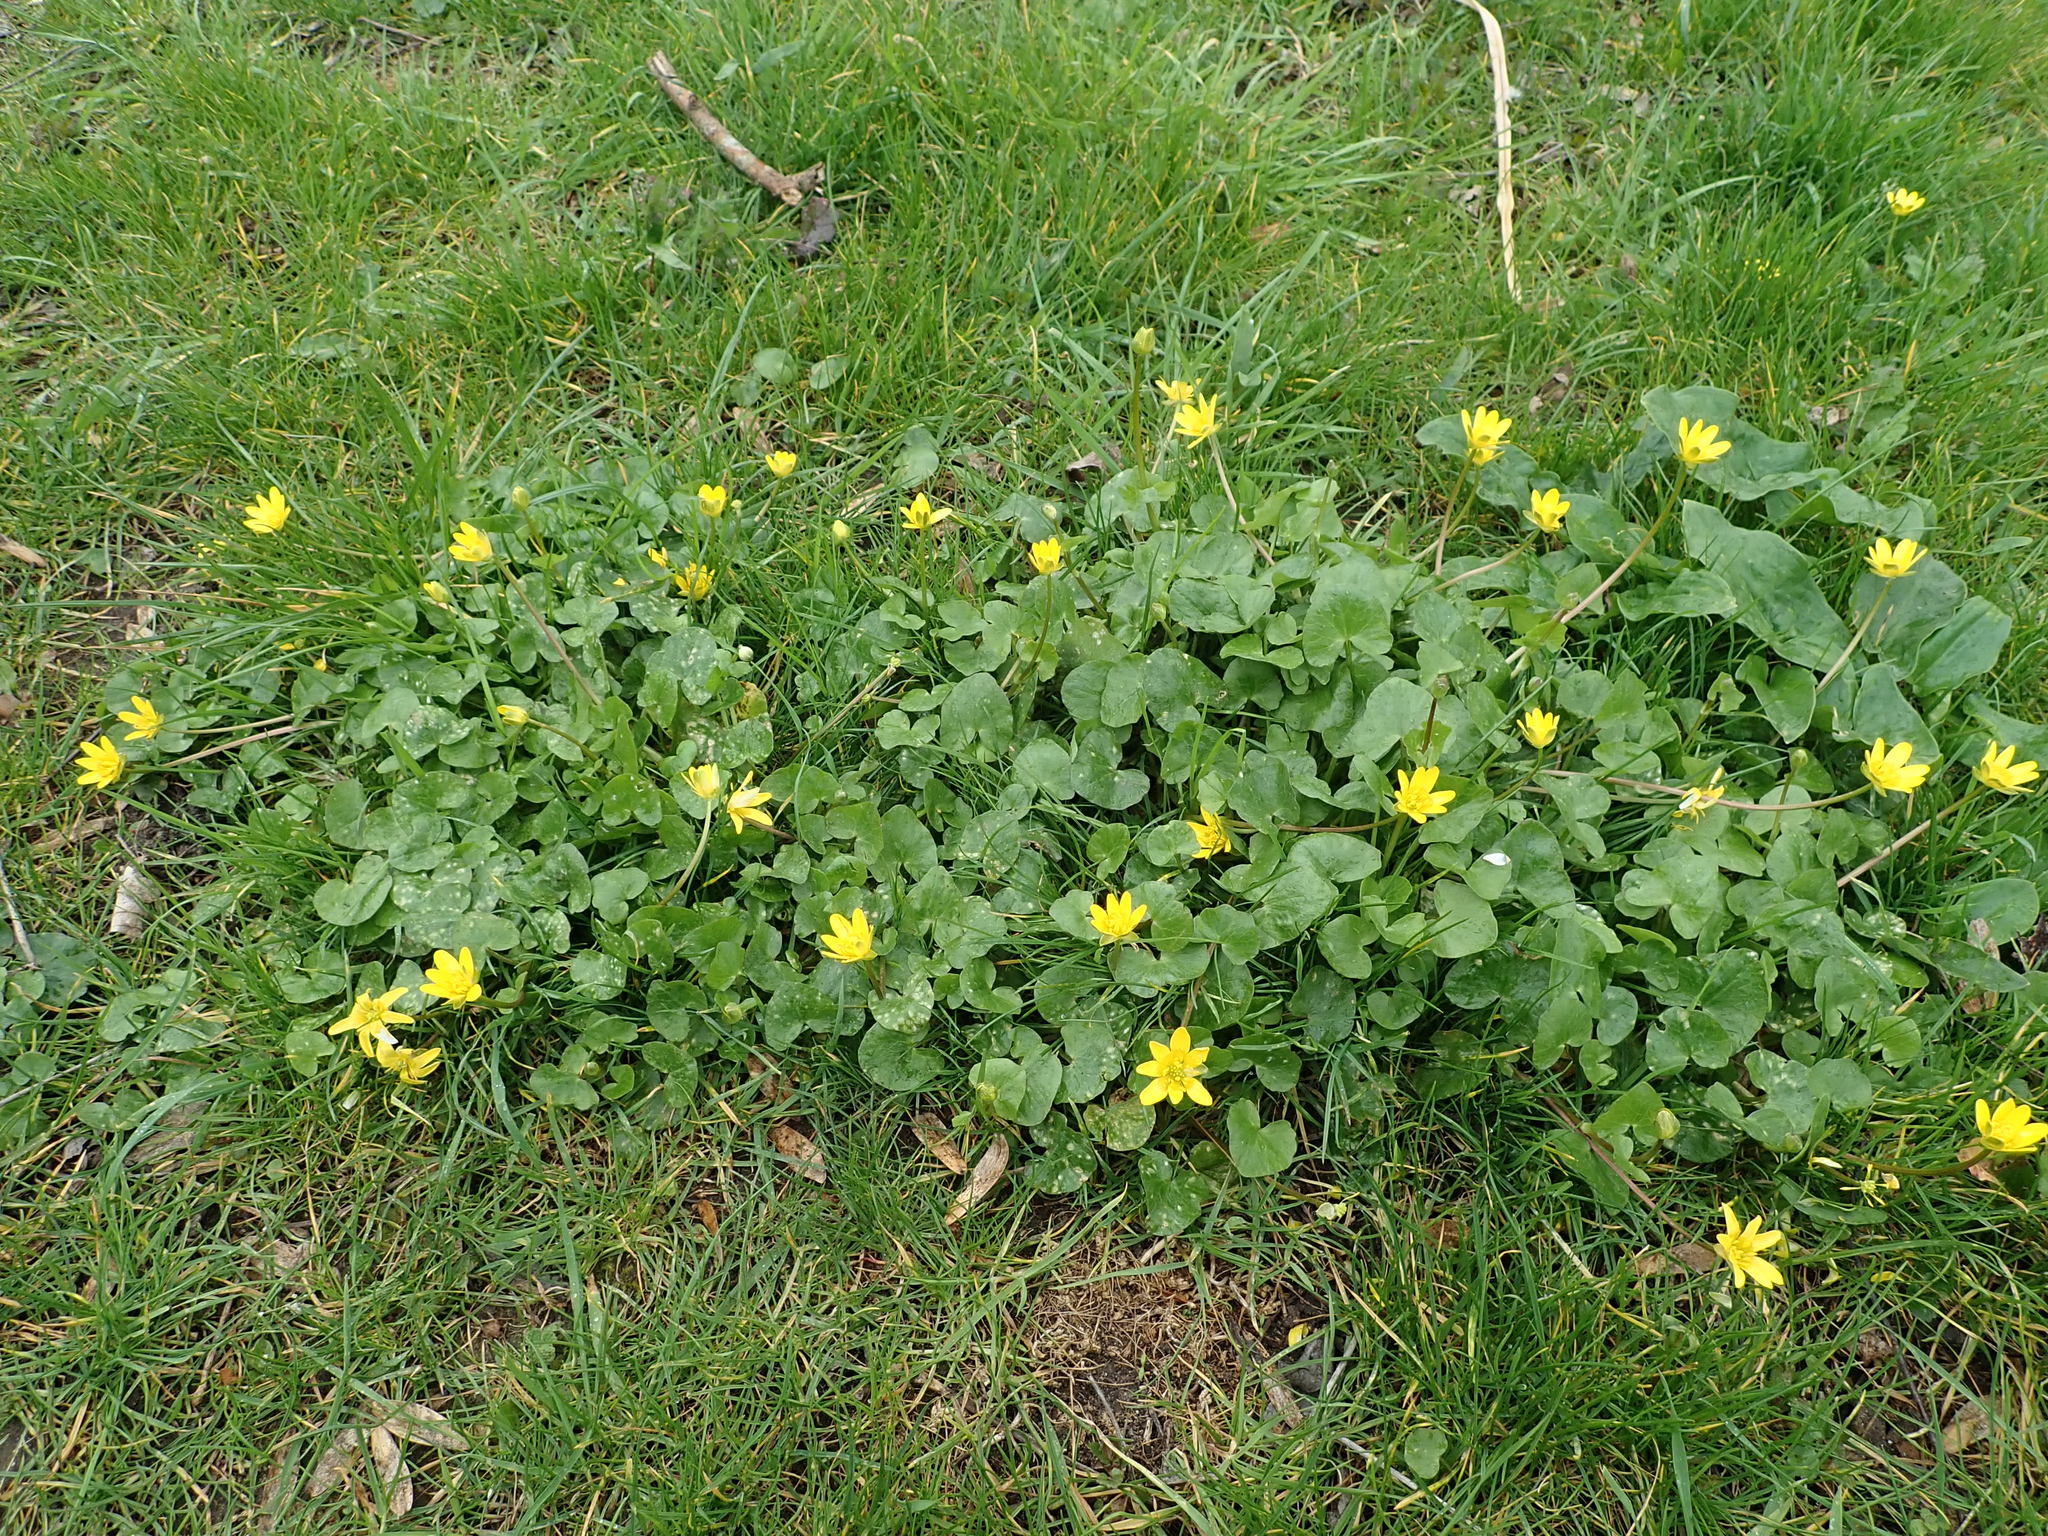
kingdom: Plantae
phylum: Tracheophyta
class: Magnoliopsida
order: Ranunculales
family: Ranunculaceae
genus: Ficaria
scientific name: Ficaria verna
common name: Lesser celandine
